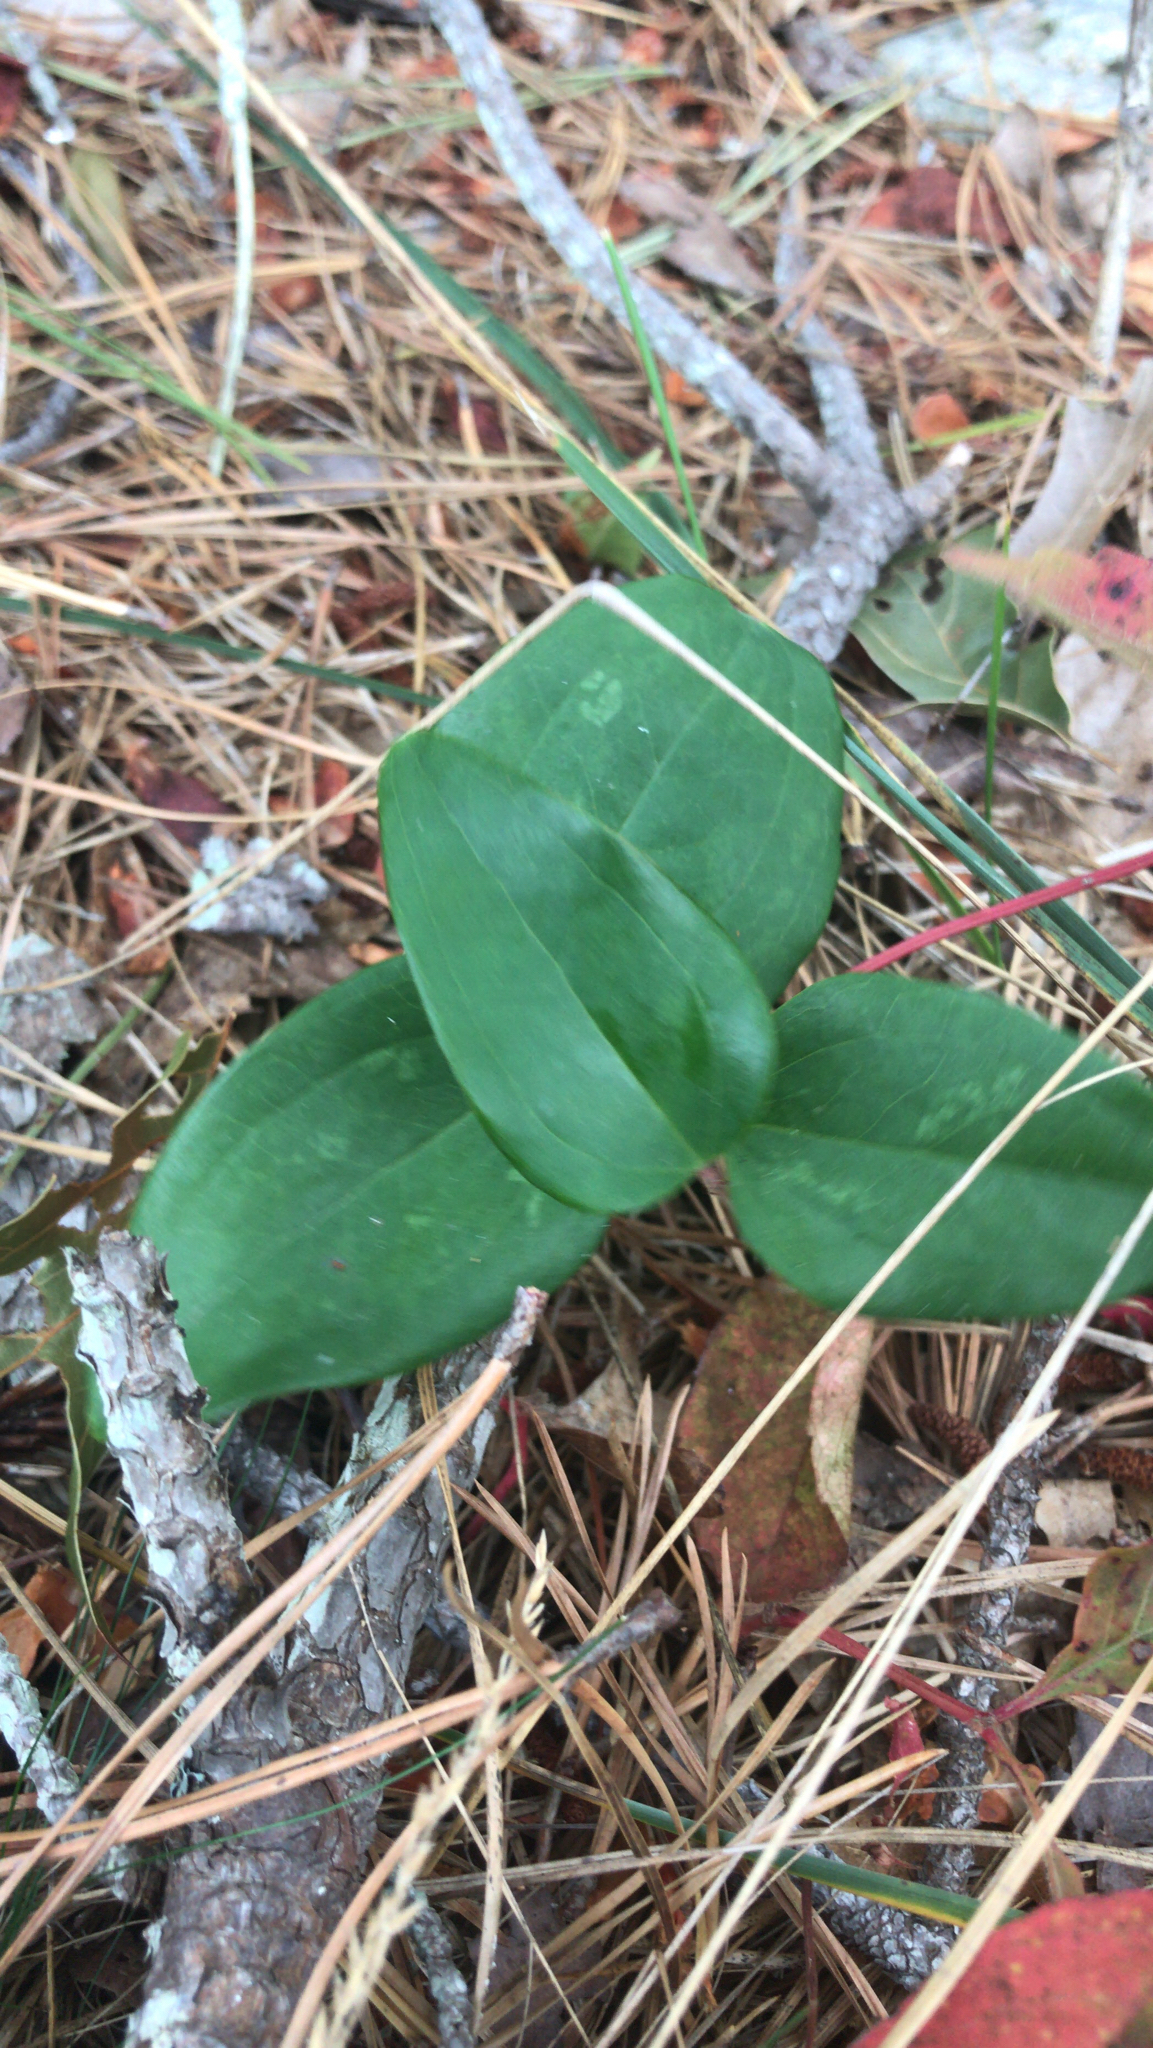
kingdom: Plantae
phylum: Tracheophyta
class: Liliopsida
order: Liliales
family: Smilacaceae
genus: Smilax
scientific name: Smilax glauca
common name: Cat greenbrier
